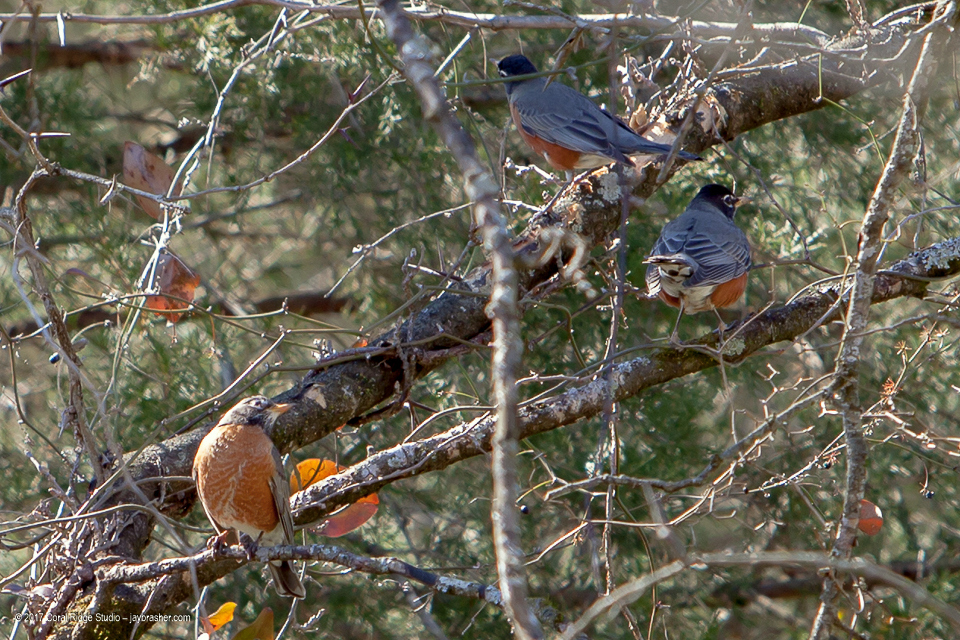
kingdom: Animalia
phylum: Chordata
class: Aves
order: Passeriformes
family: Turdidae
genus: Turdus
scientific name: Turdus migratorius
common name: American robin
